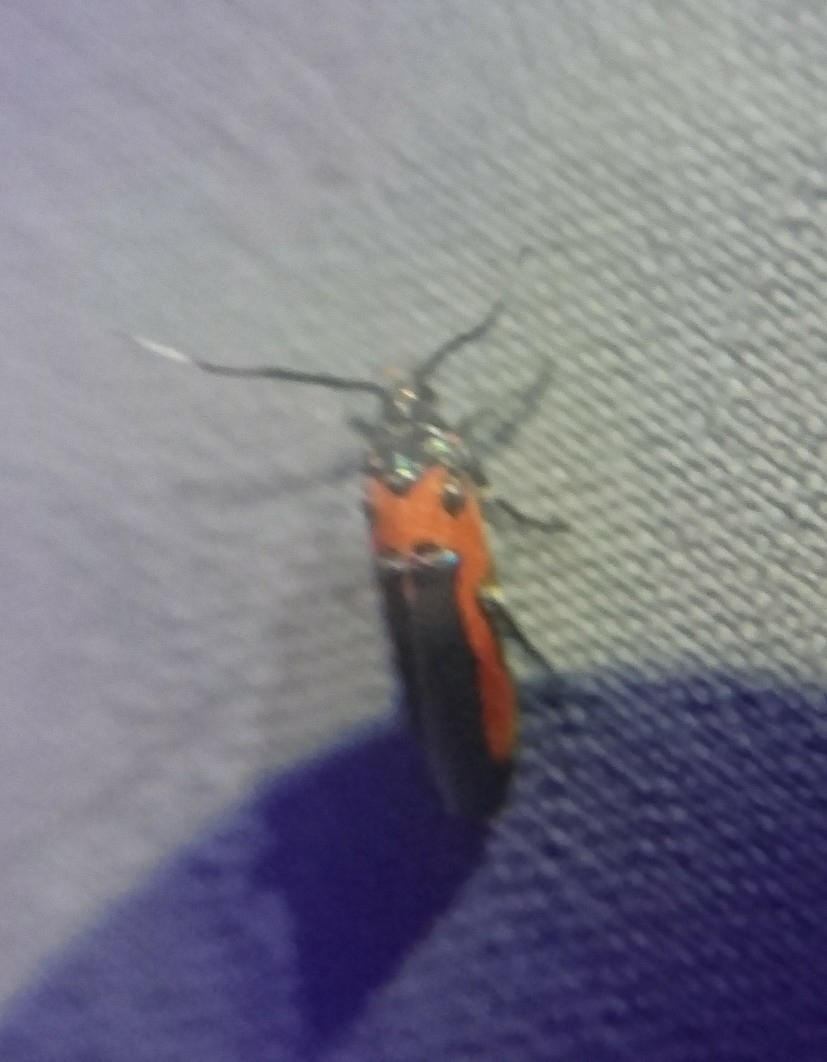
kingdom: Animalia
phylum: Arthropoda
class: Insecta
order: Lepidoptera
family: Cosmopterigidae
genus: Euclemensia
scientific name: Euclemensia bassettella
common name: Kermes scale moth
